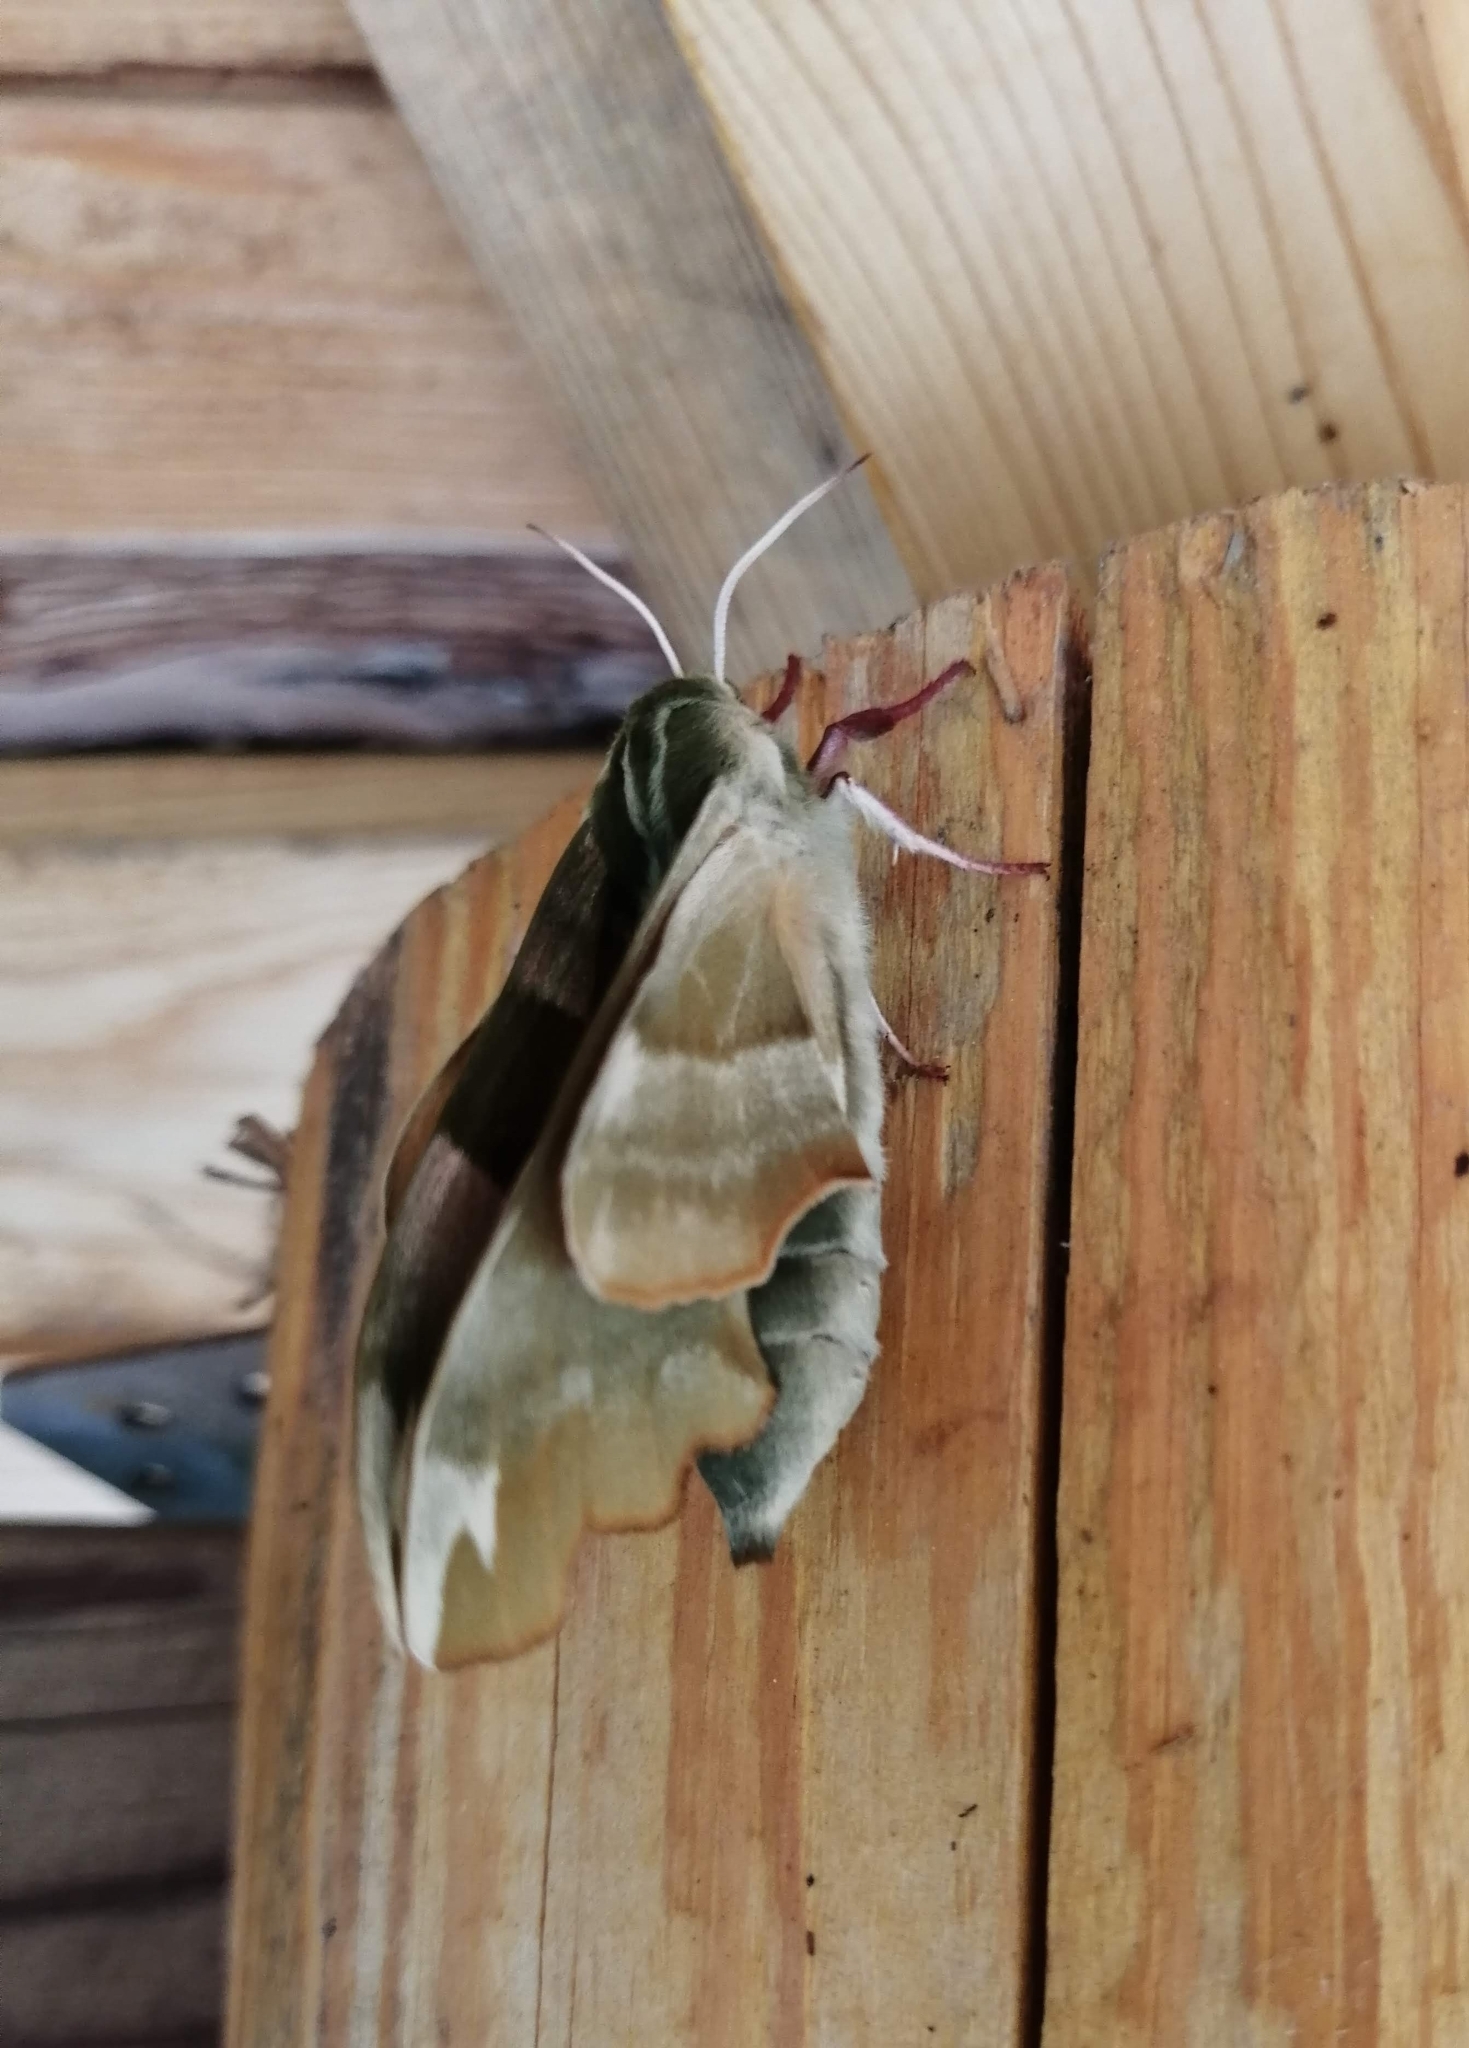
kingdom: Animalia
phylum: Arthropoda
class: Insecta
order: Lepidoptera
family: Sphingidae
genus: Mimas
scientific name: Mimas tiliae
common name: Lime hawk-moth
